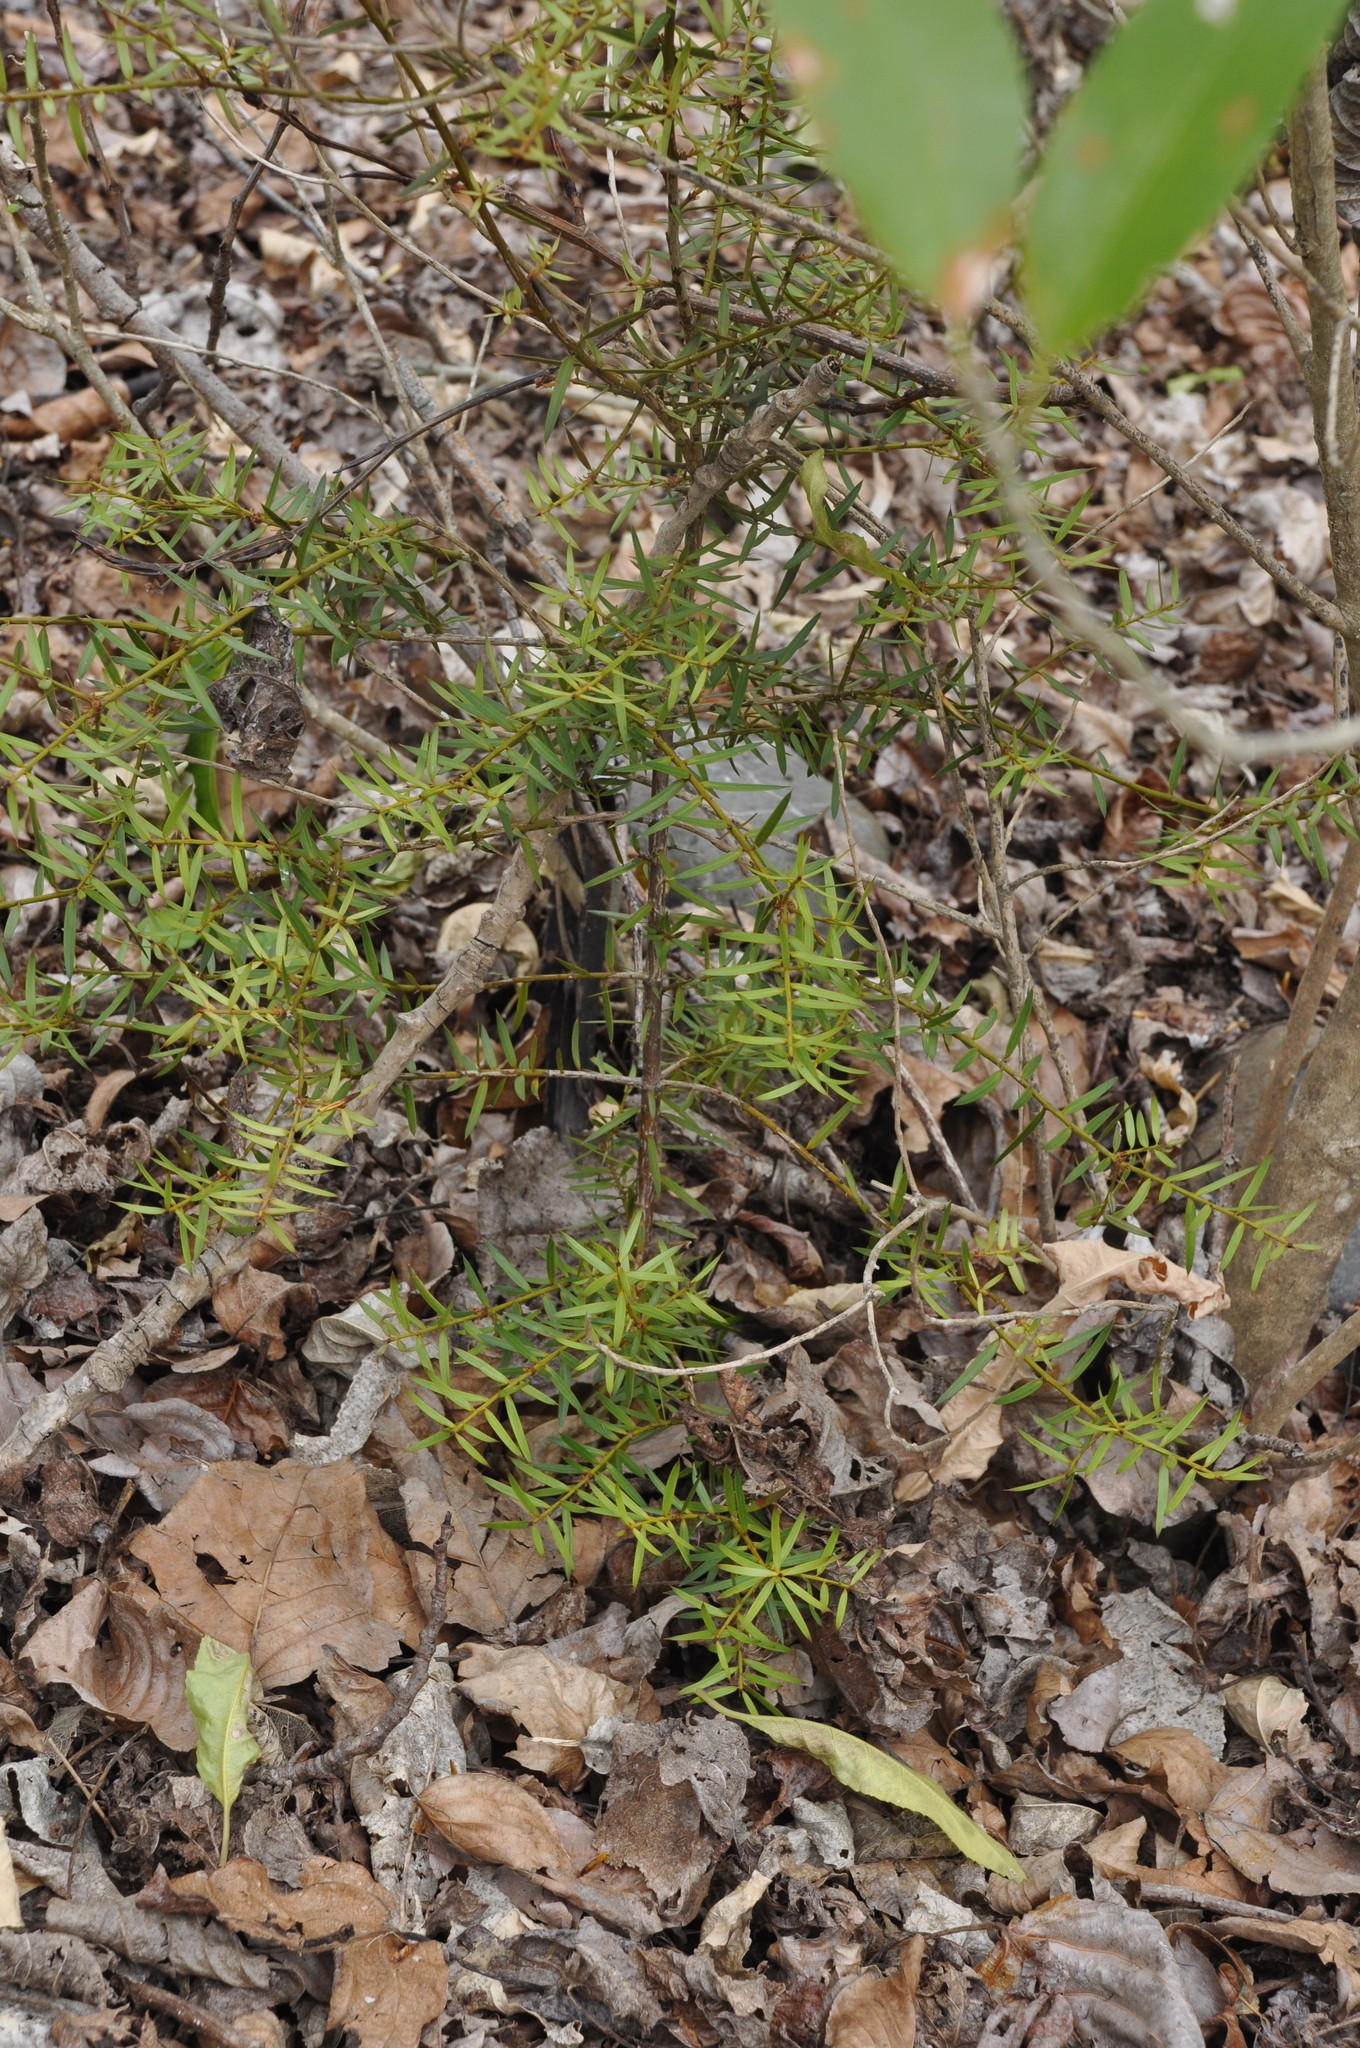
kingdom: Plantae
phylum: Tracheophyta
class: Pinopsida
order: Pinales
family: Podocarpaceae
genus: Podocarpus
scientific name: Podocarpus totara
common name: Totara
